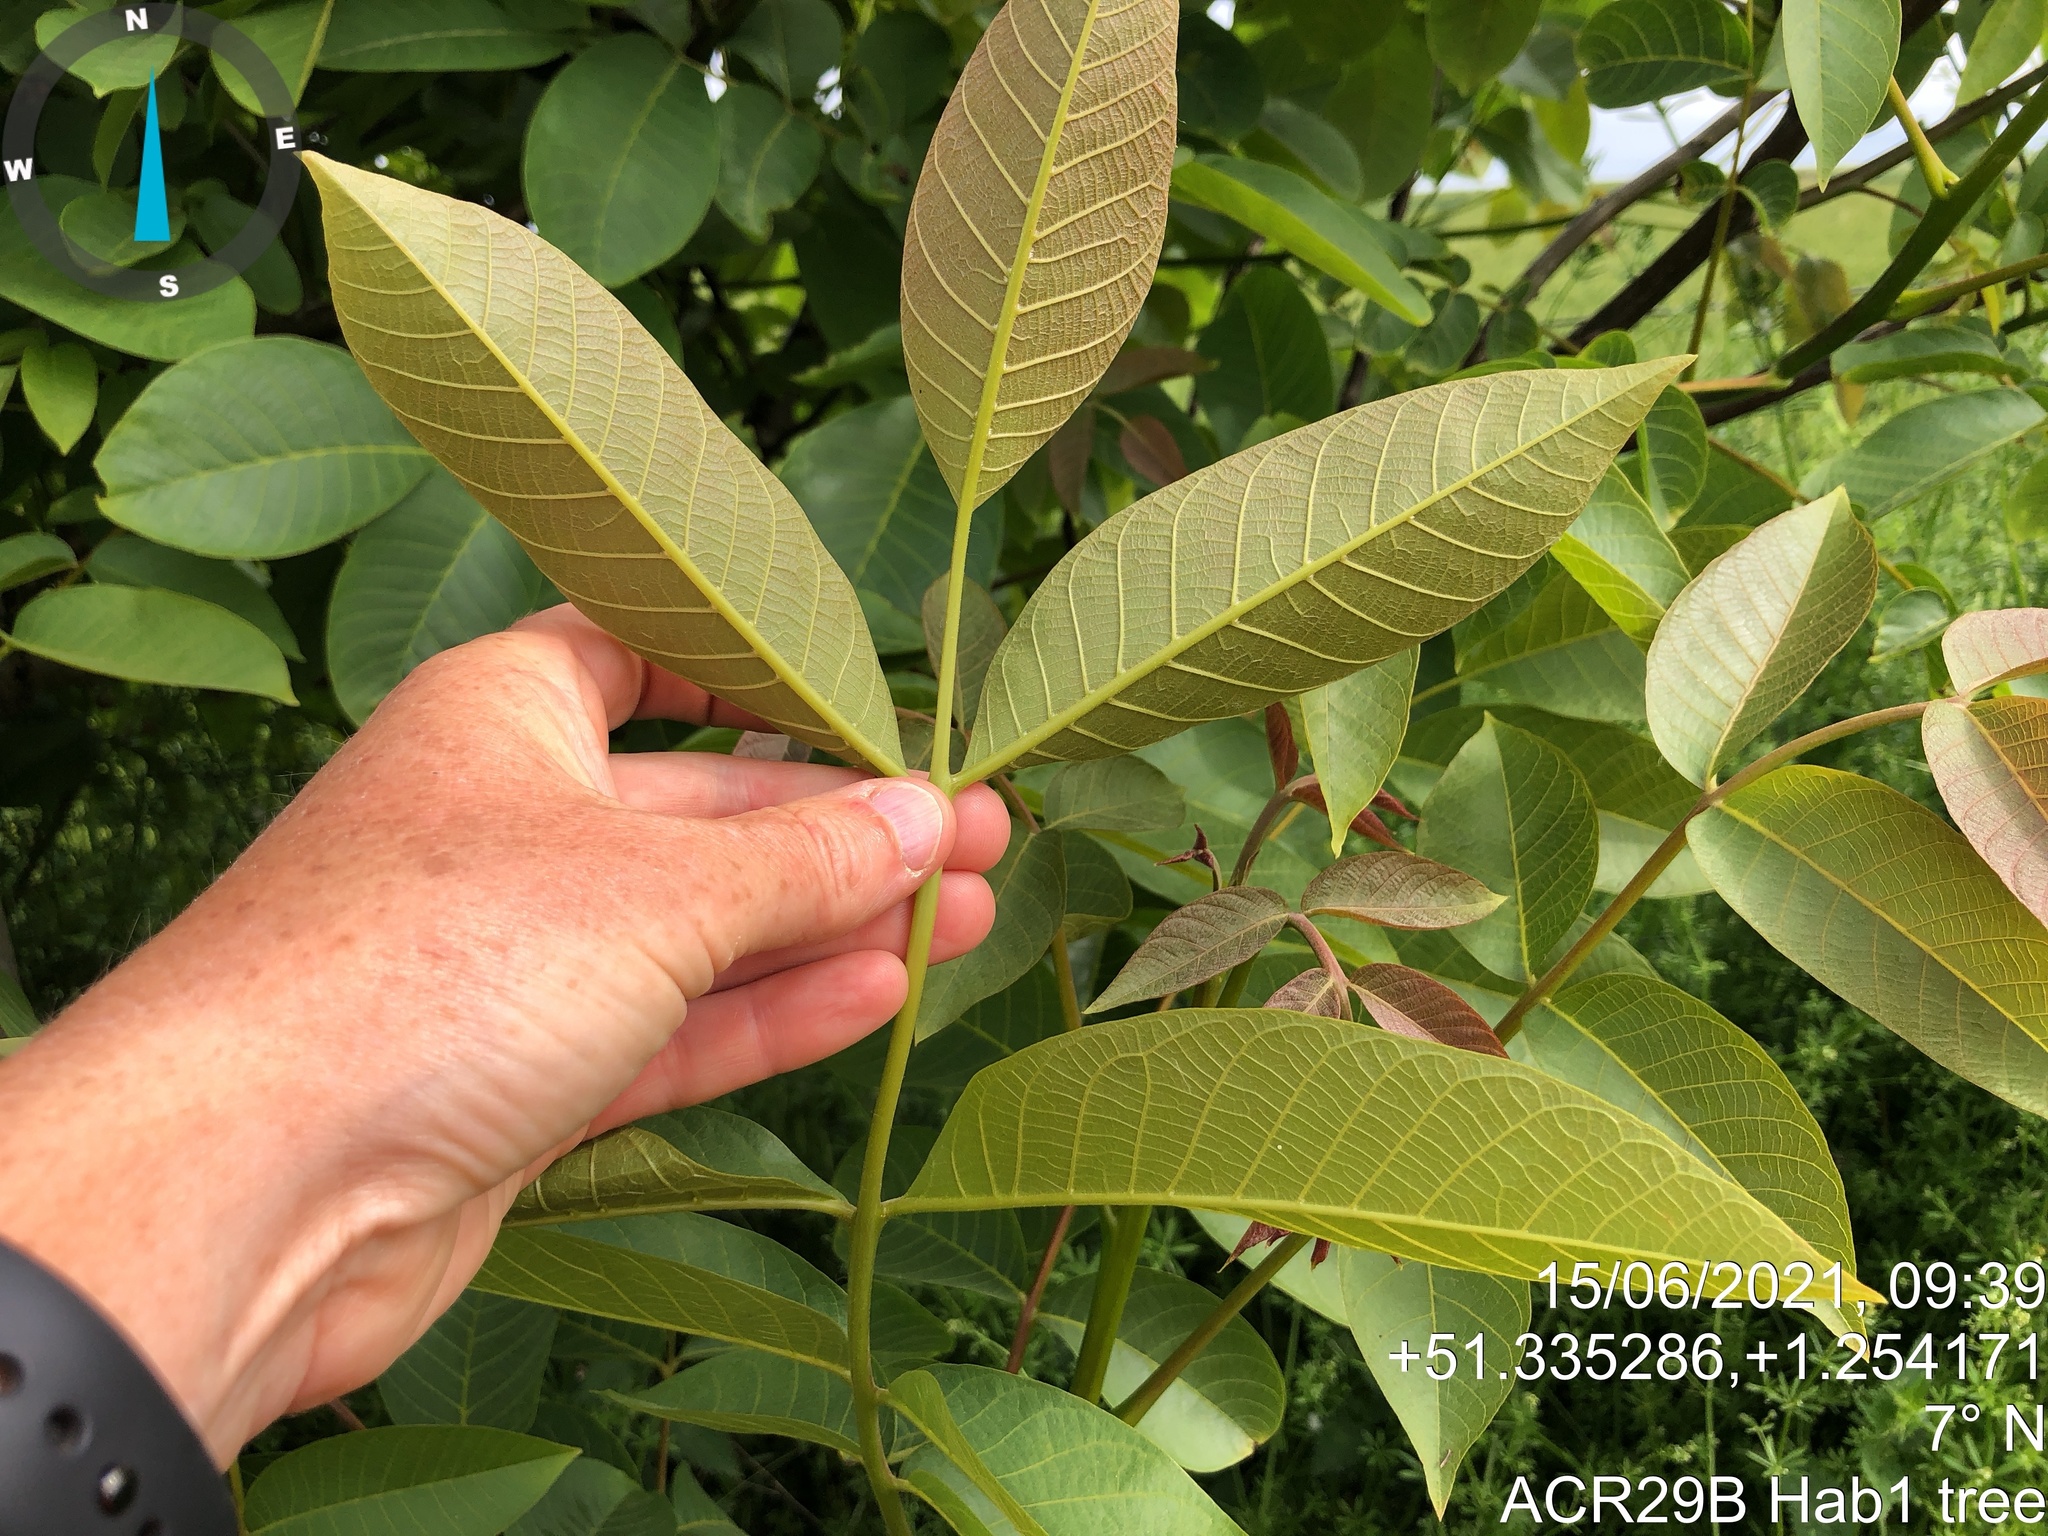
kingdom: Plantae
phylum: Tracheophyta
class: Magnoliopsida
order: Fagales
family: Juglandaceae
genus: Juglans
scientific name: Juglans regia
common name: Walnut
